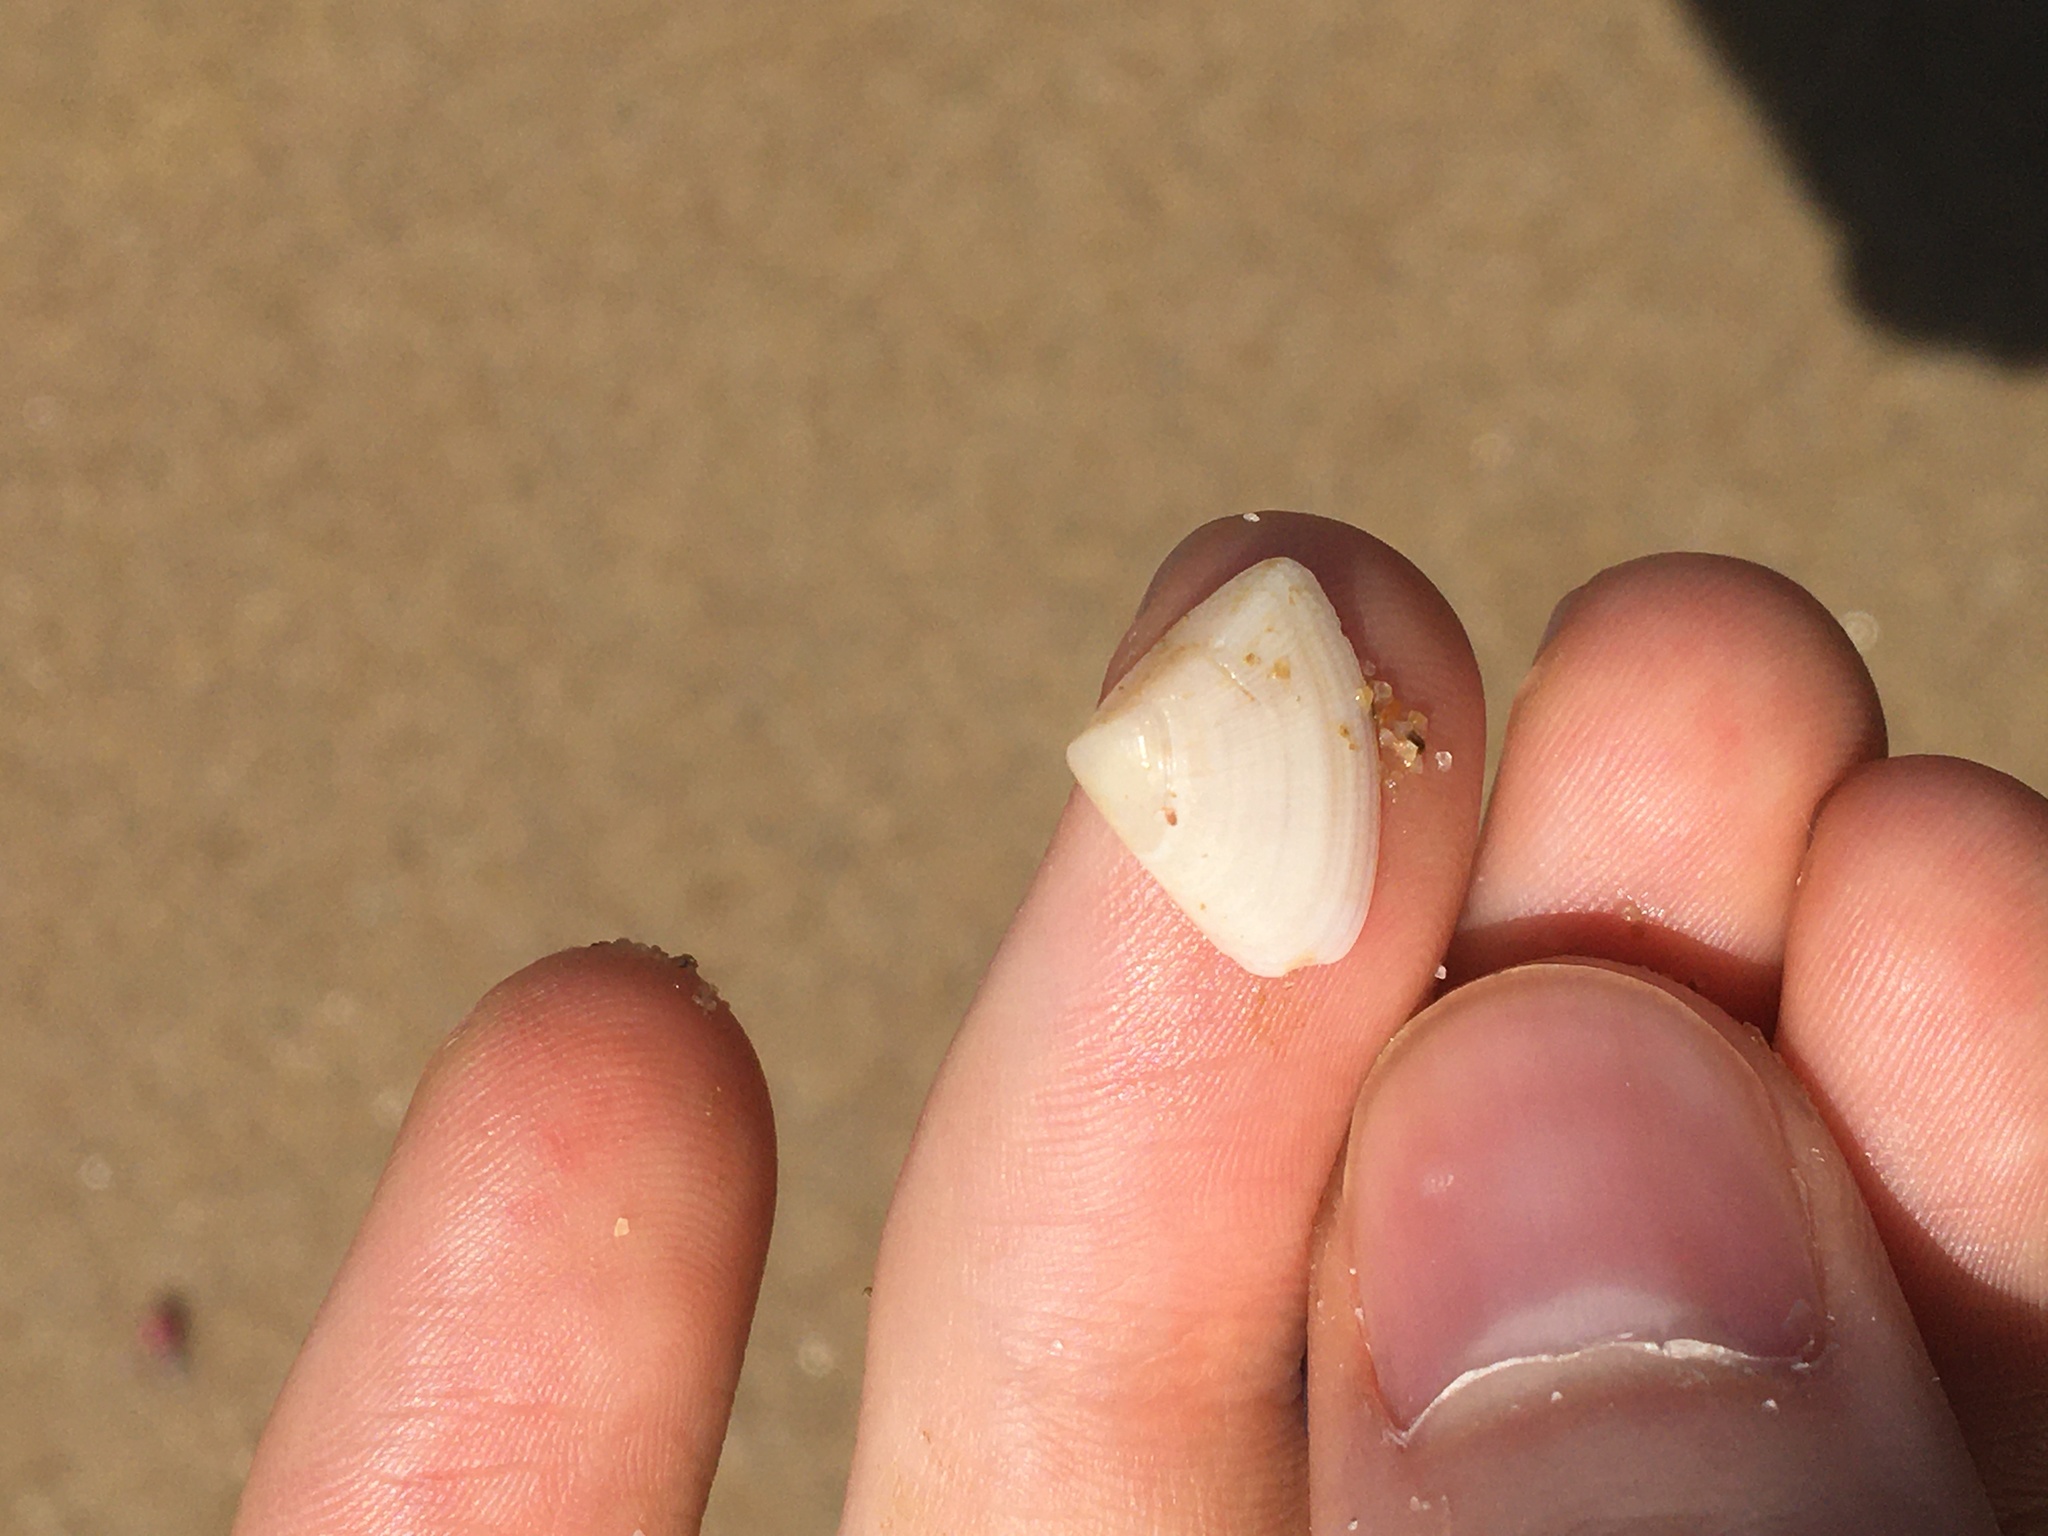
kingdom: Animalia
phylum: Mollusca
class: Bivalvia
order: Cardiida
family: Donacidae
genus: Donax
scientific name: Donax brazieri
